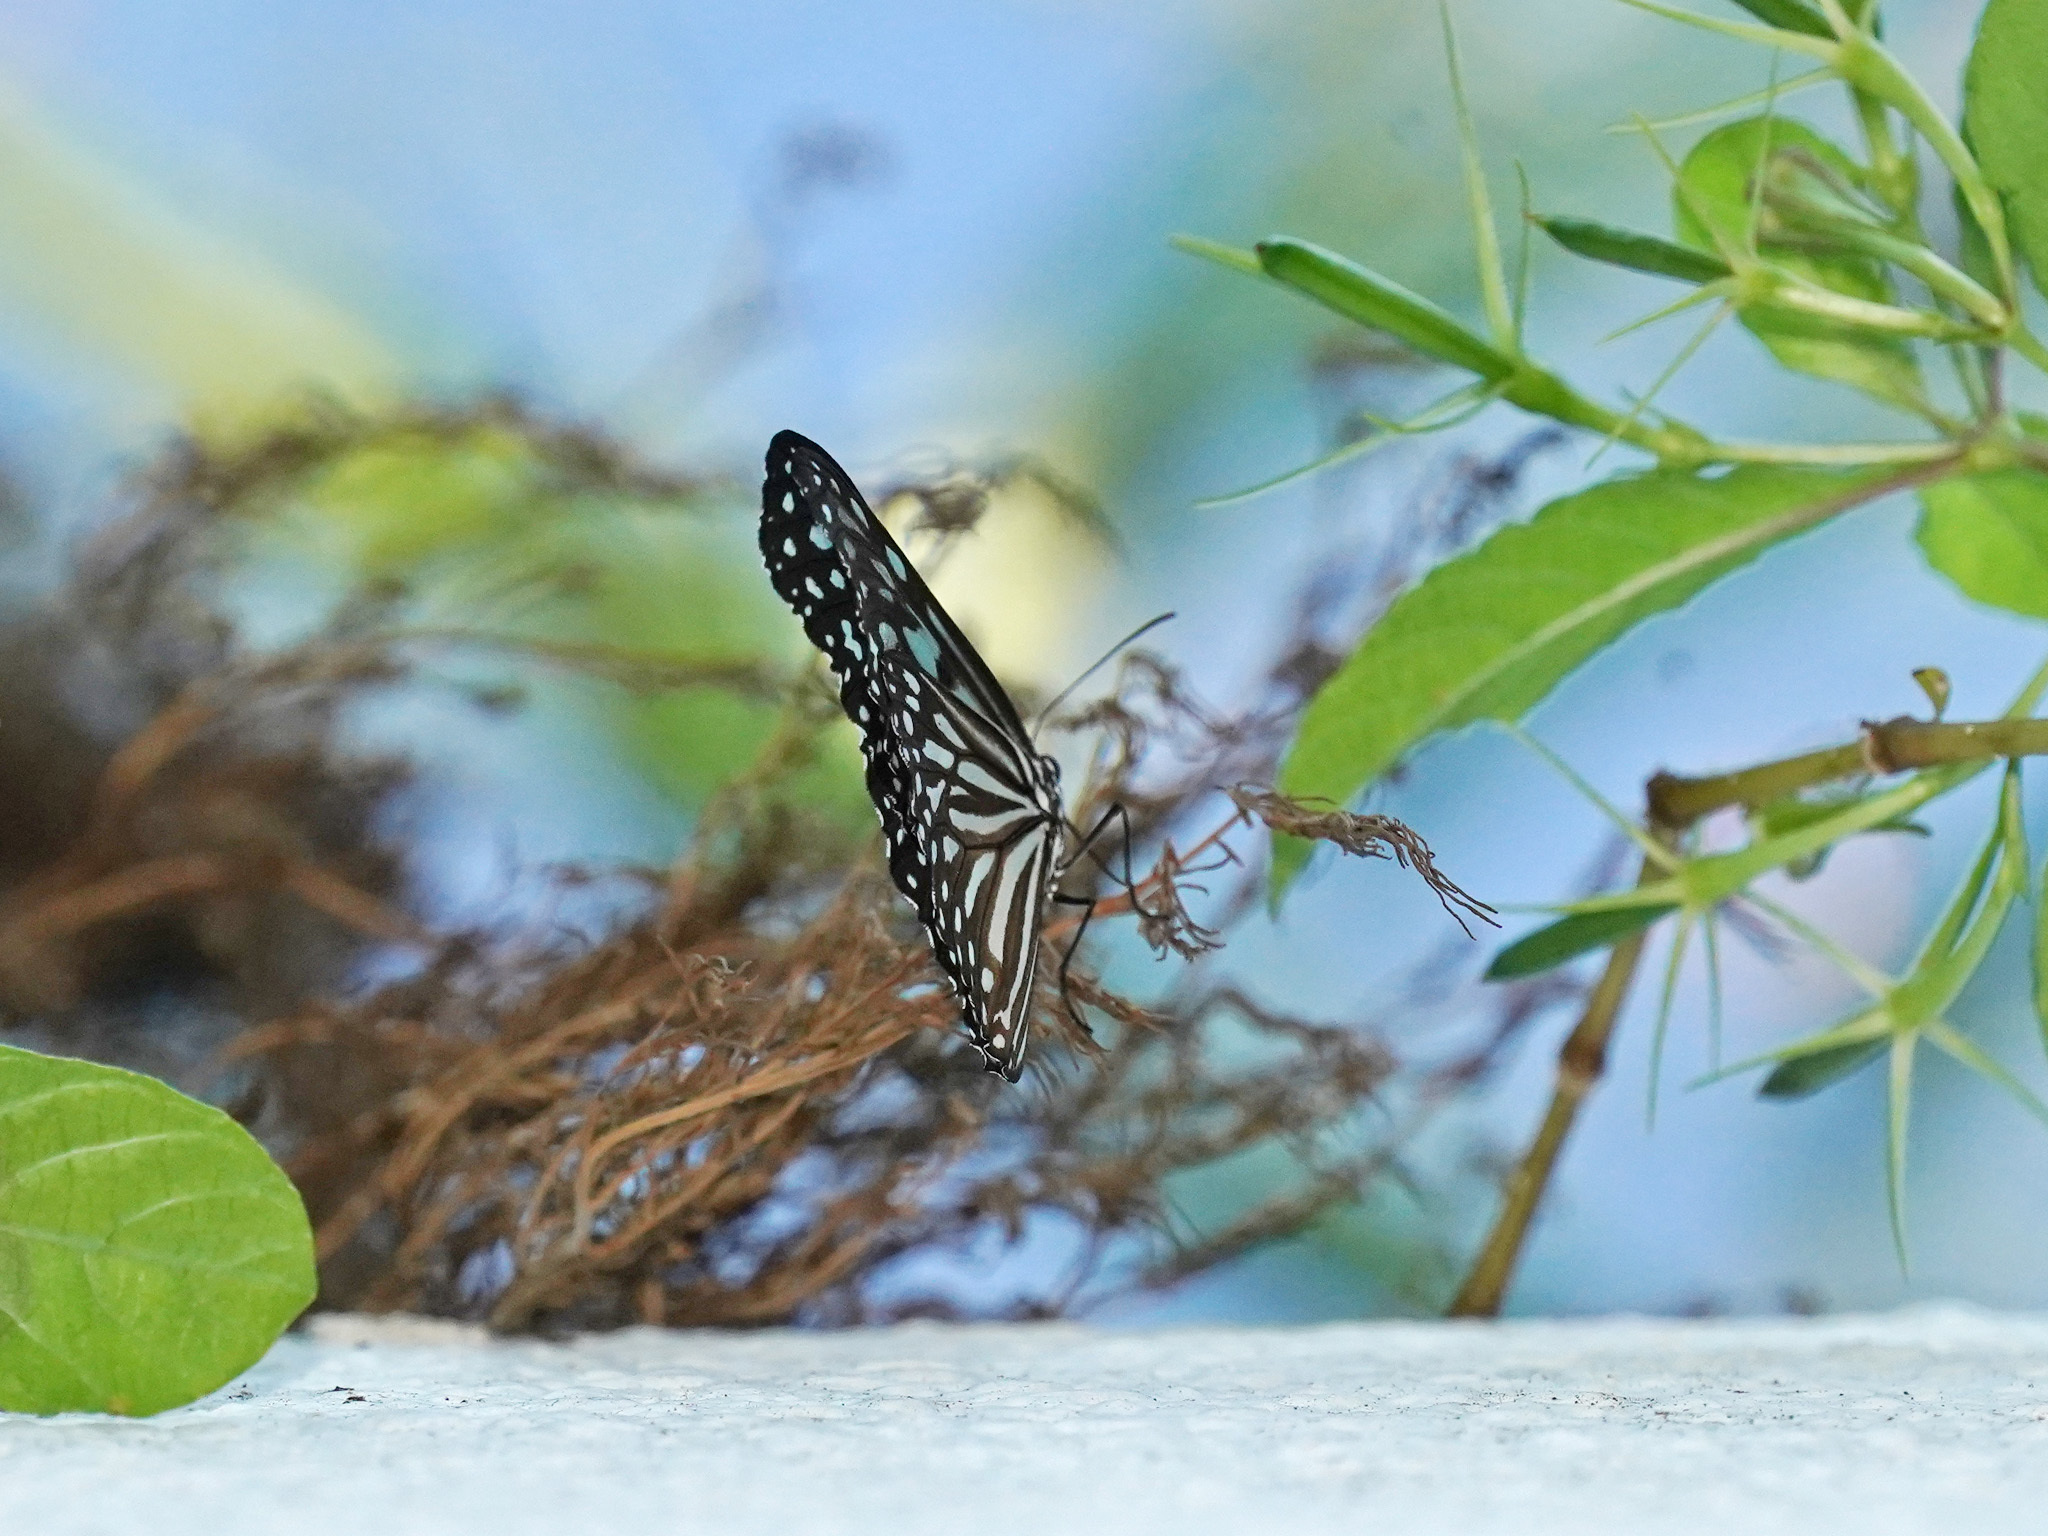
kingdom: Animalia
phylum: Arthropoda
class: Insecta
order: Lepidoptera
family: Nymphalidae
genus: Ideopsis
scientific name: Ideopsis vulgaris
